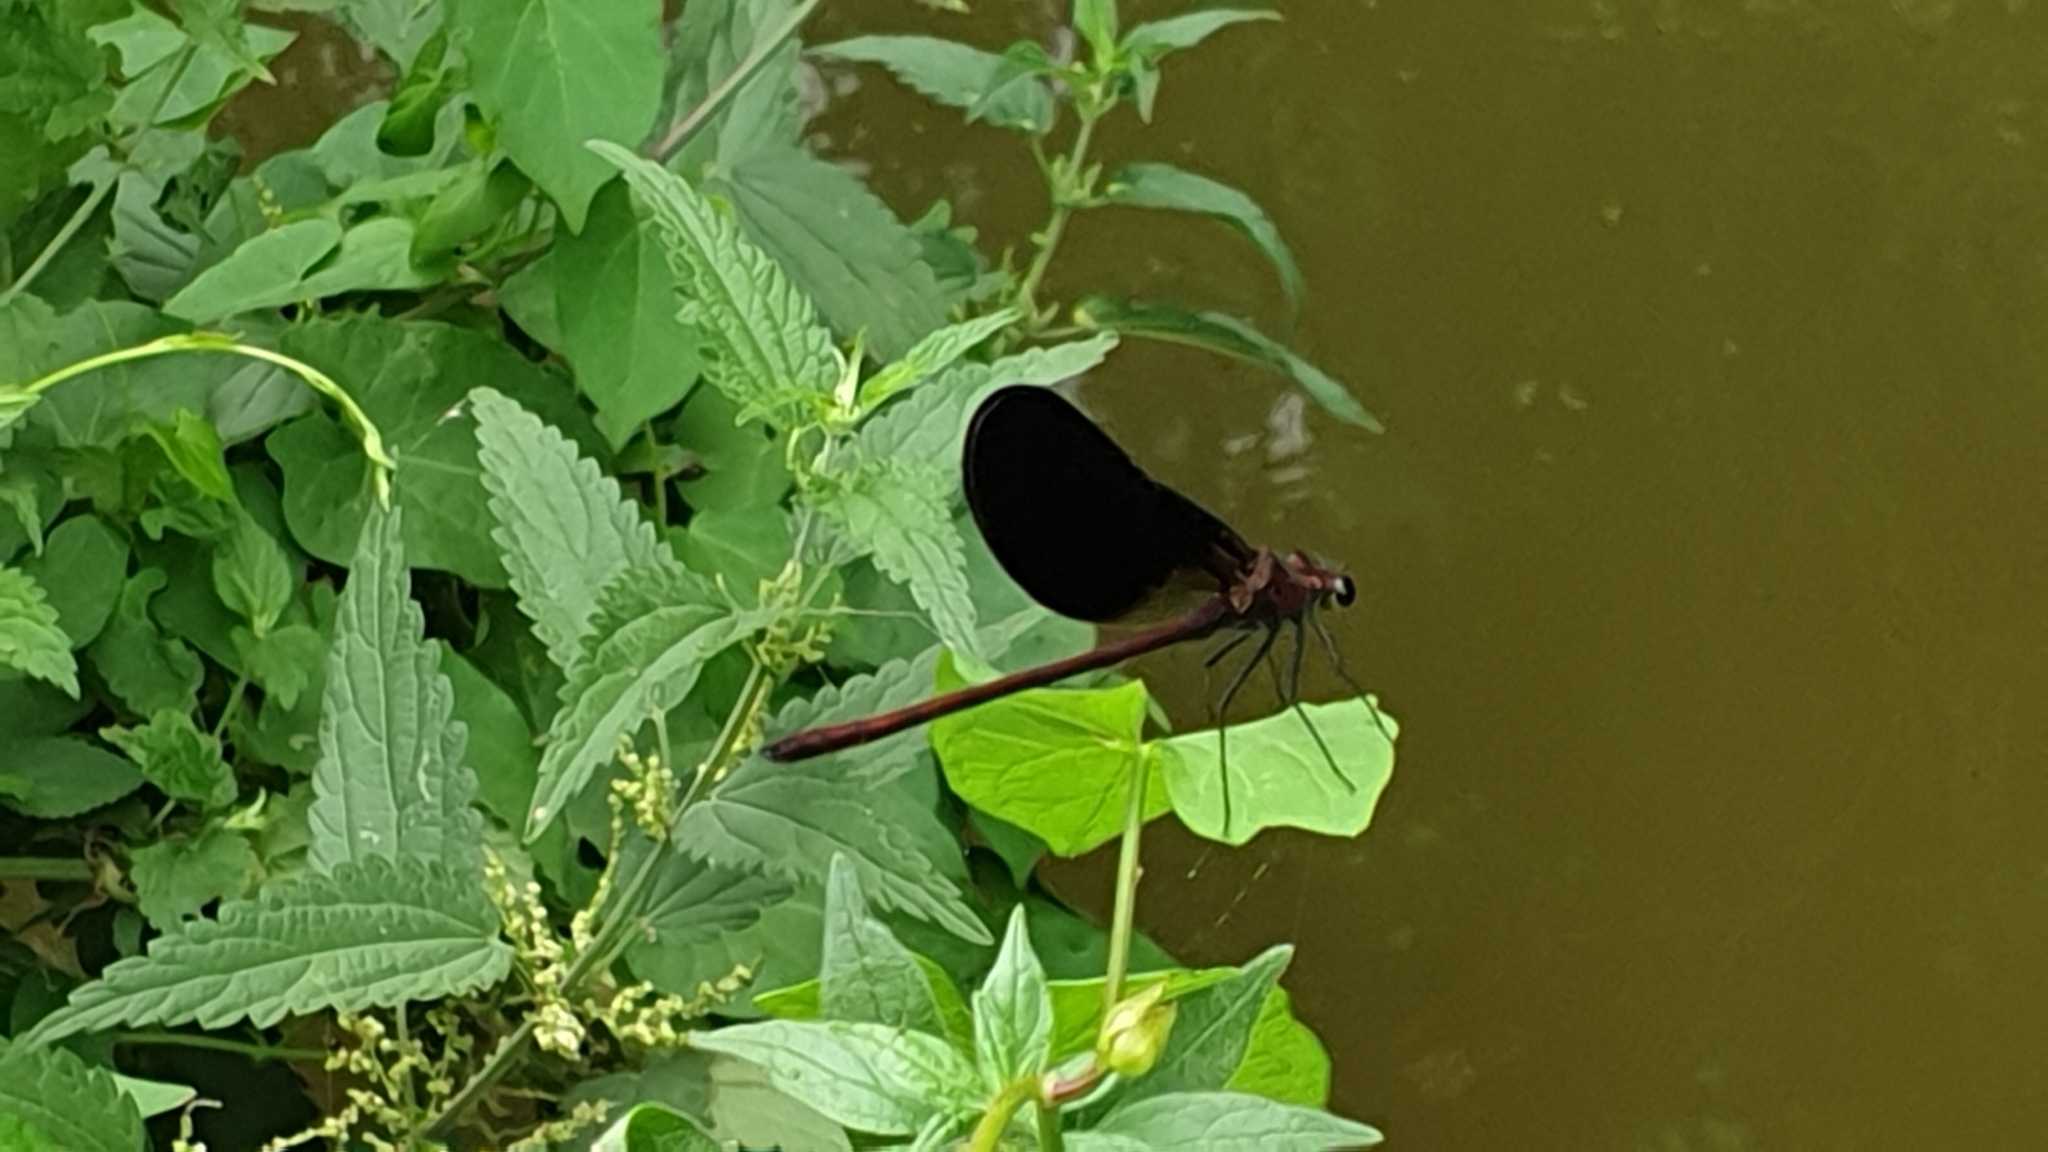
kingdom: Animalia
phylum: Arthropoda
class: Insecta
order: Odonata
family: Calopterygidae
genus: Calopteryx
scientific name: Calopteryx haemorrhoidalis
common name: Copper demoiselle
